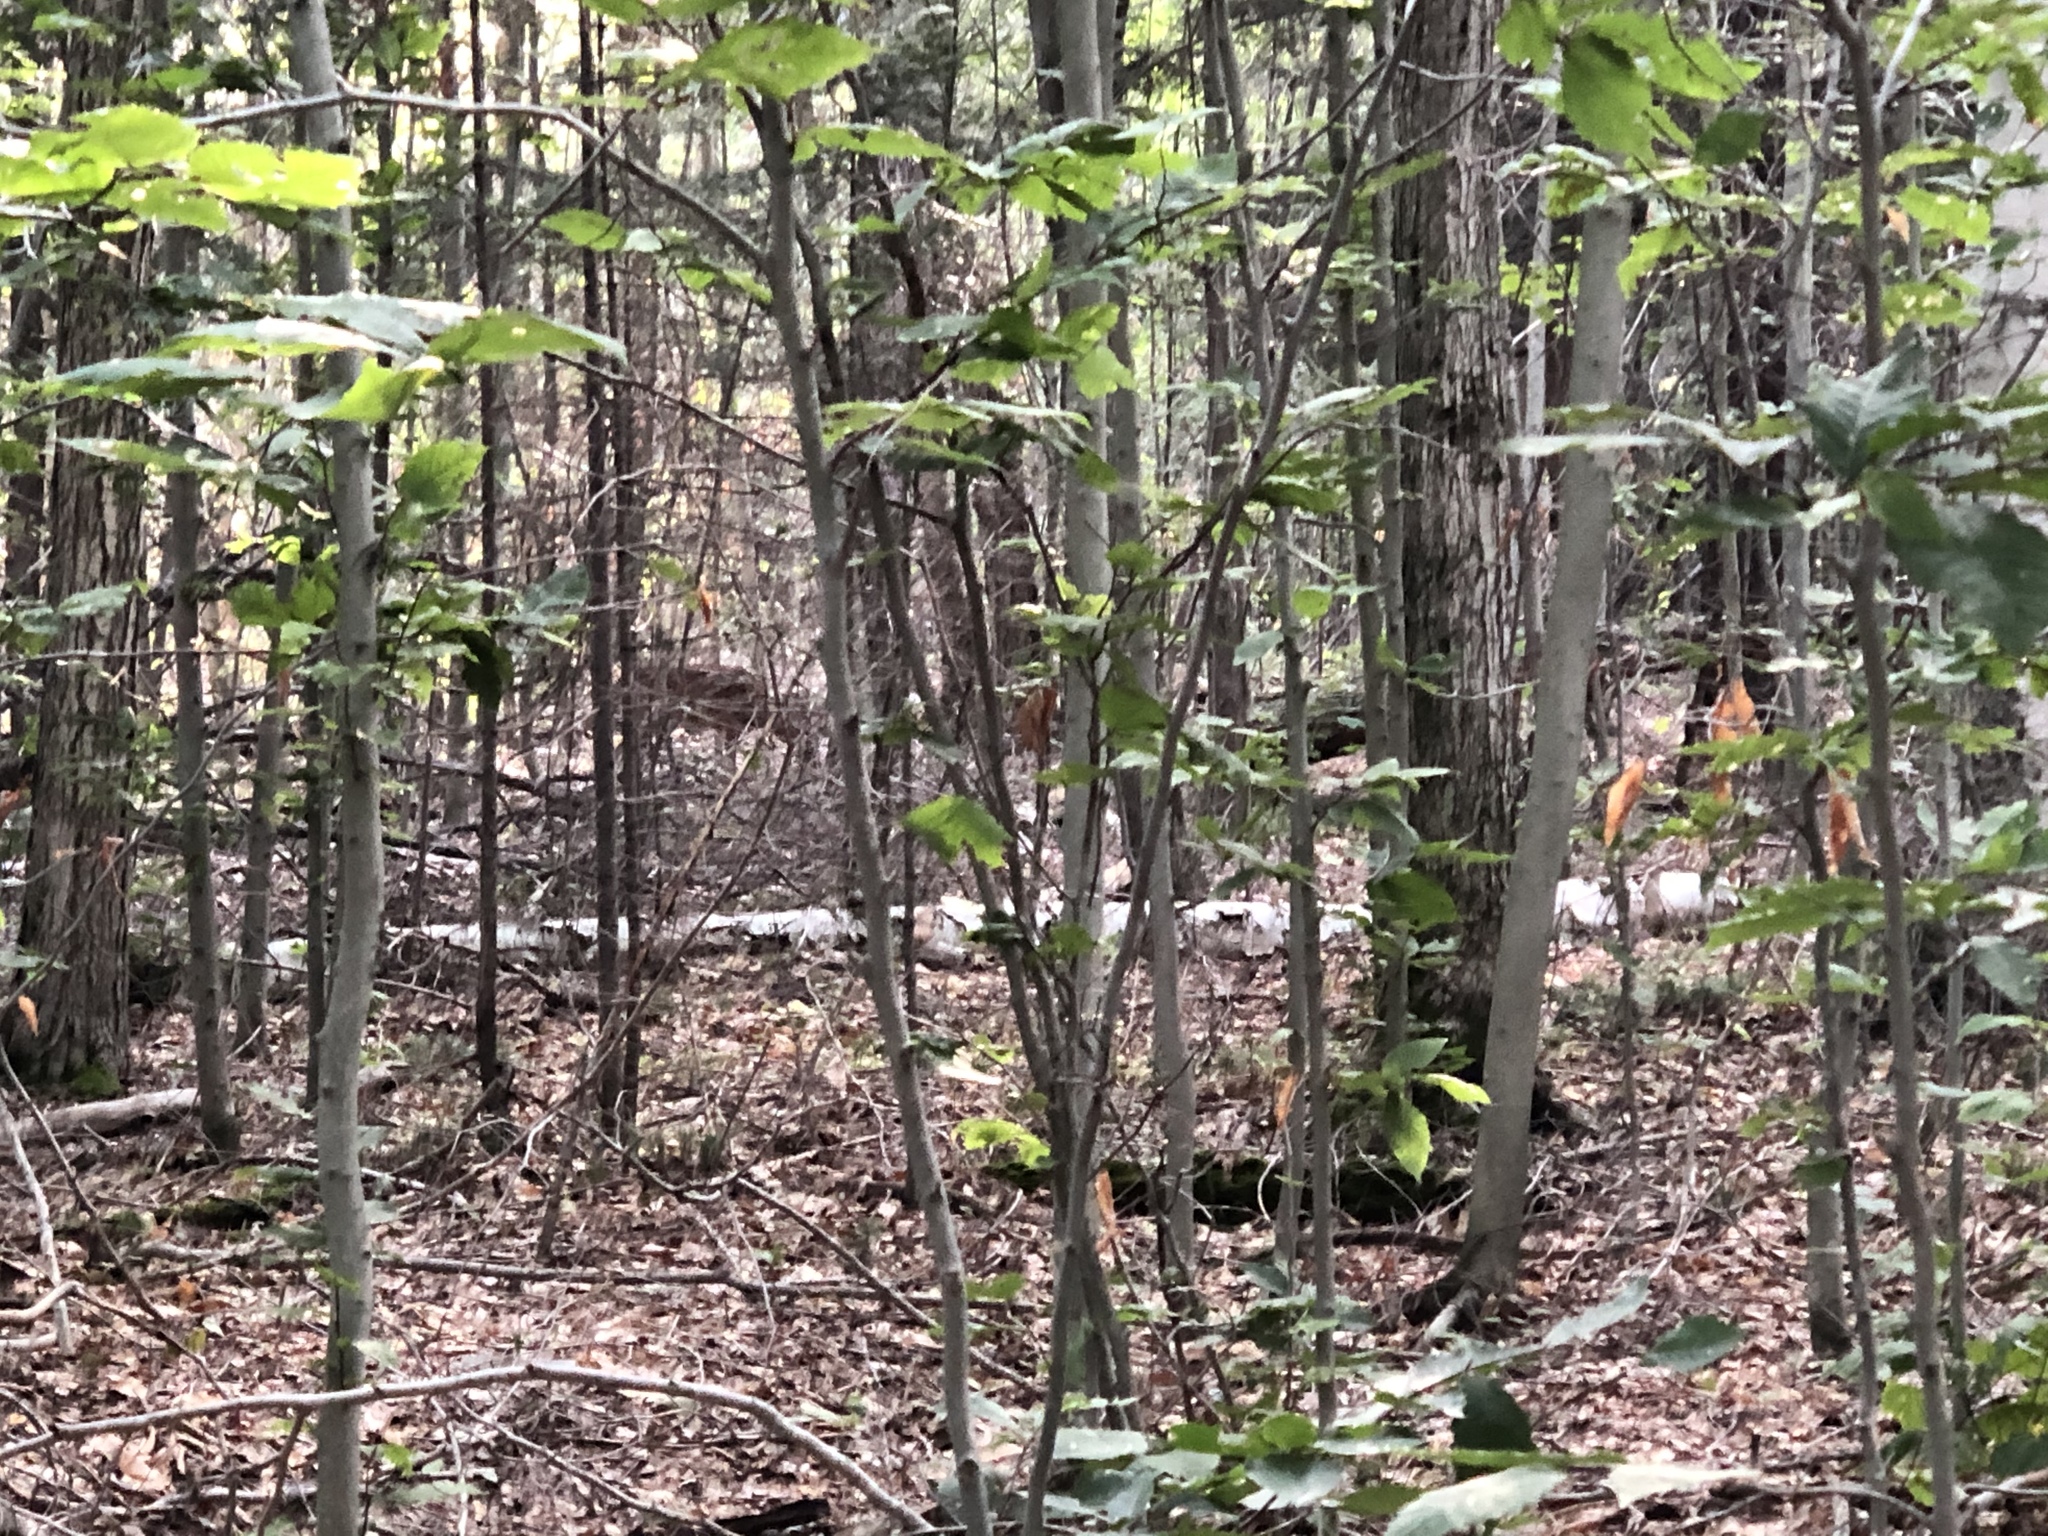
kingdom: Animalia
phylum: Chordata
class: Mammalia
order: Artiodactyla
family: Cervidae
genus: Odocoileus
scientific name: Odocoileus virginianus
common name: White-tailed deer
